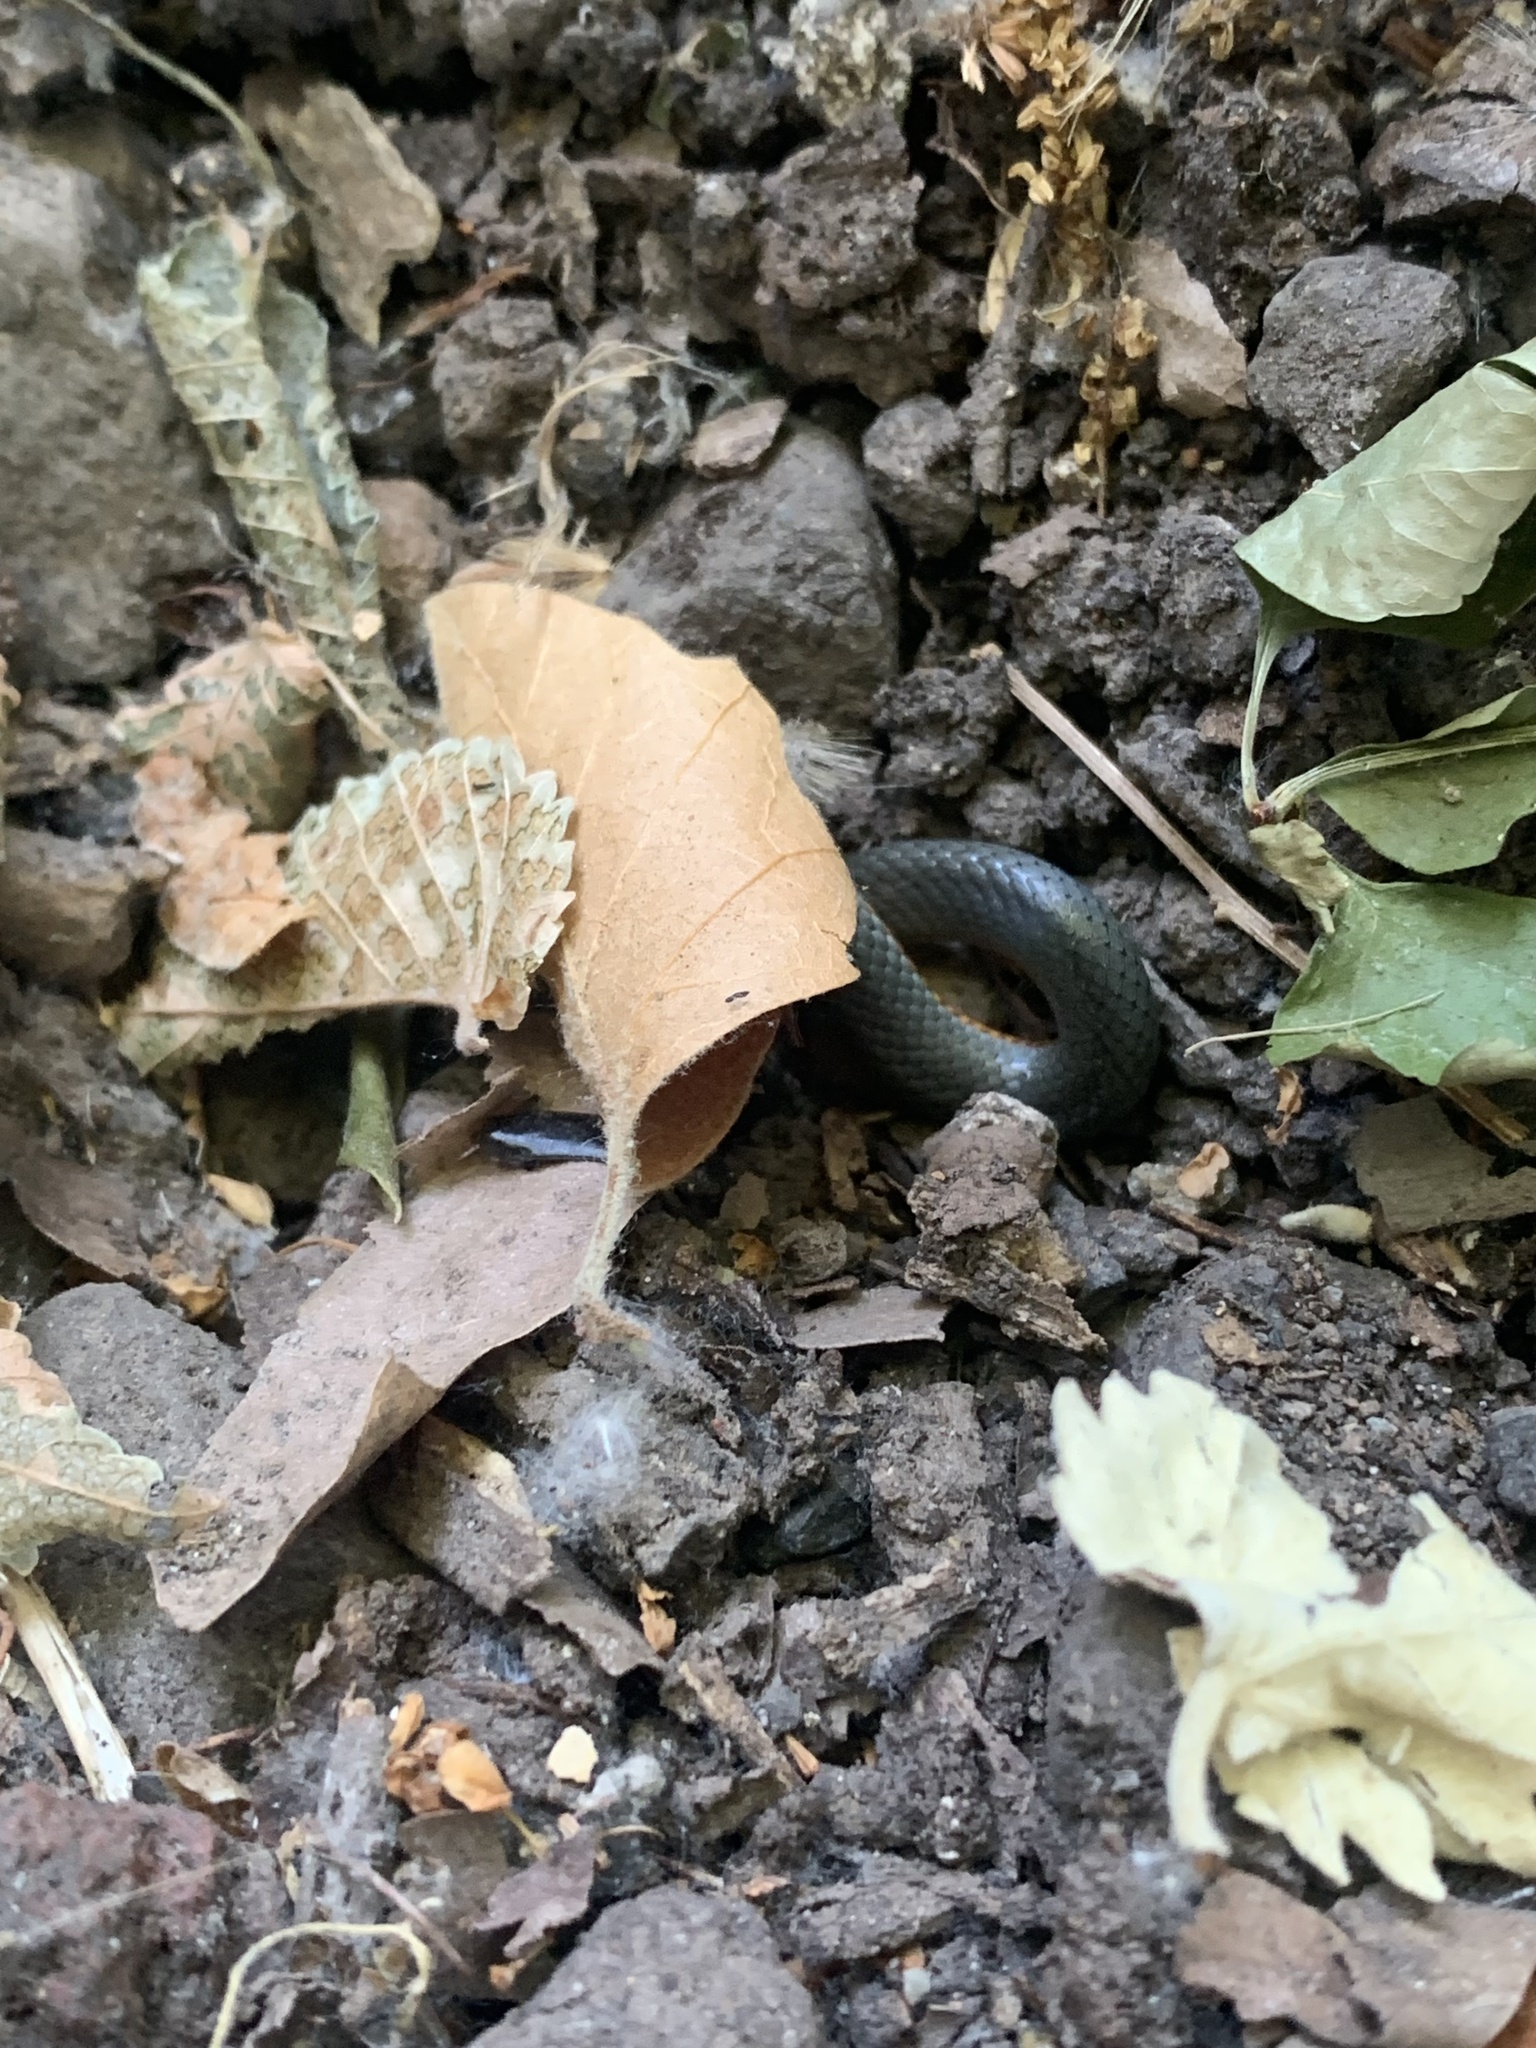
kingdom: Animalia
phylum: Chordata
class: Squamata
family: Colubridae
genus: Diadophis
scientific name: Diadophis punctatus
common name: Ringneck snake
